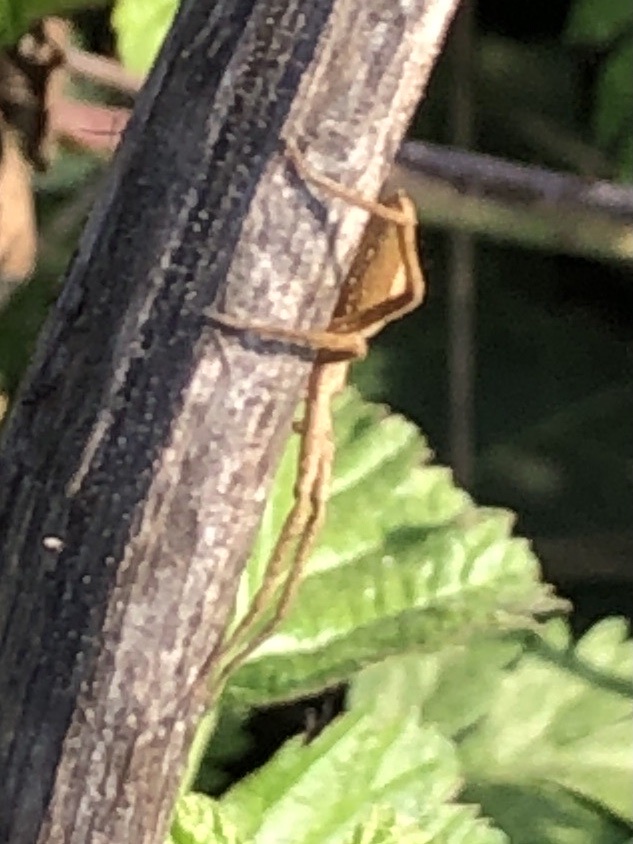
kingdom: Animalia
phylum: Arthropoda
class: Arachnida
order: Araneae
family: Pisauridae
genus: Pisaura
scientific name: Pisaura mirabilis
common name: Tent spider
